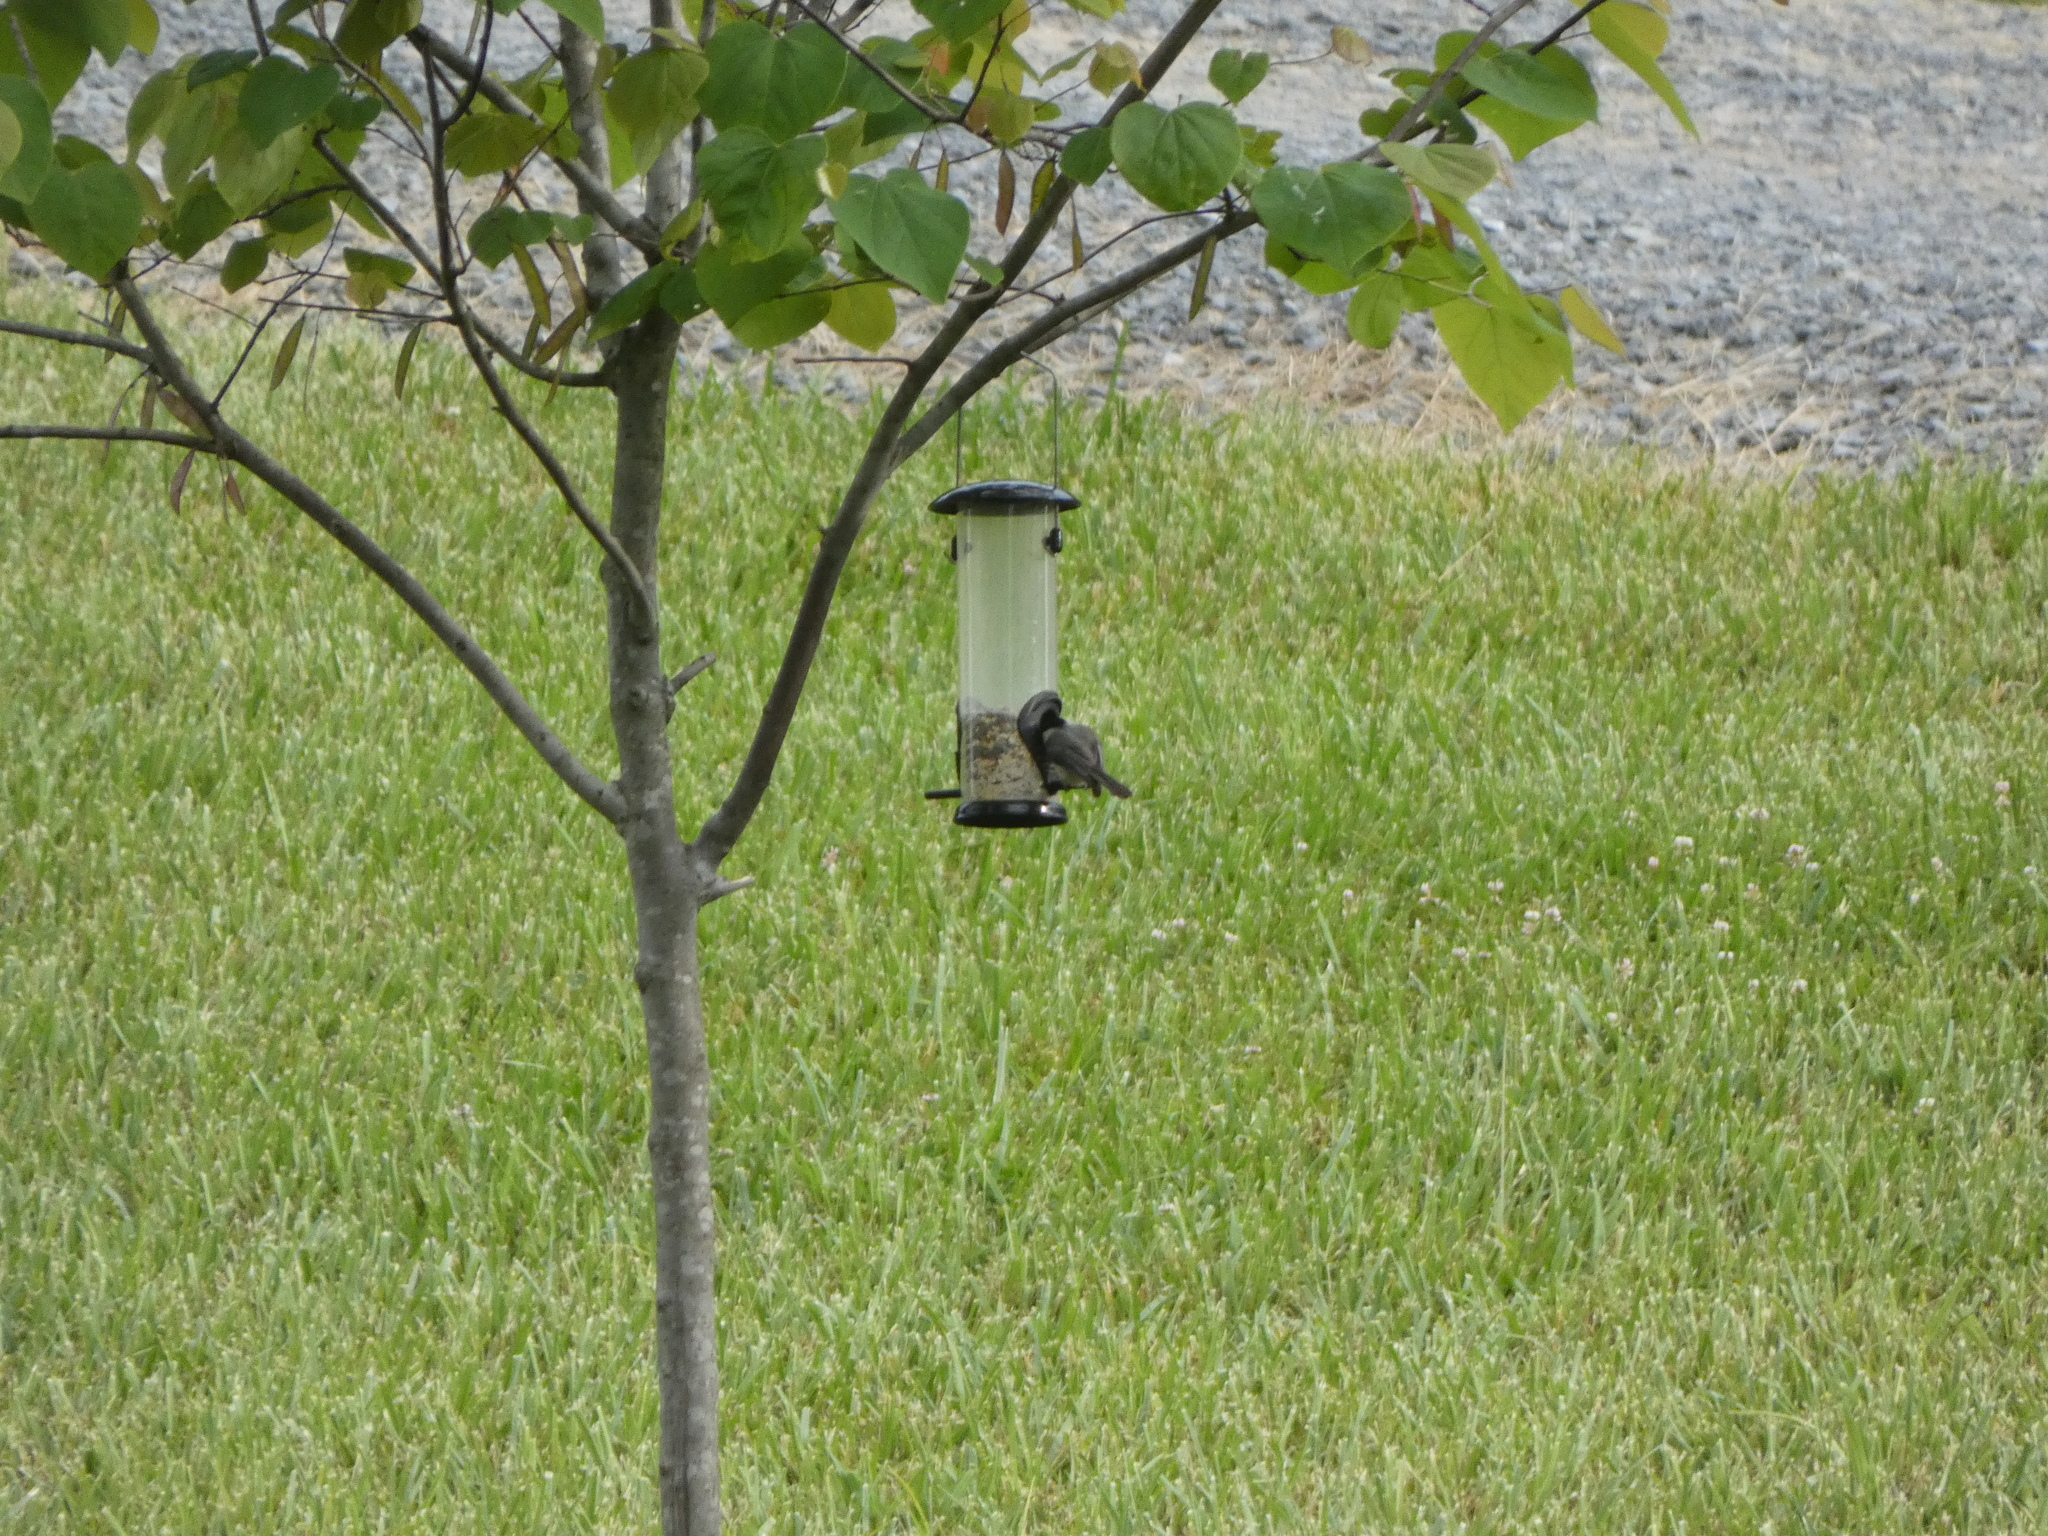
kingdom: Animalia
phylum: Chordata
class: Aves
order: Passeriformes
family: Paridae
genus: Poecile
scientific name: Poecile carolinensis
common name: Carolina chickadee
